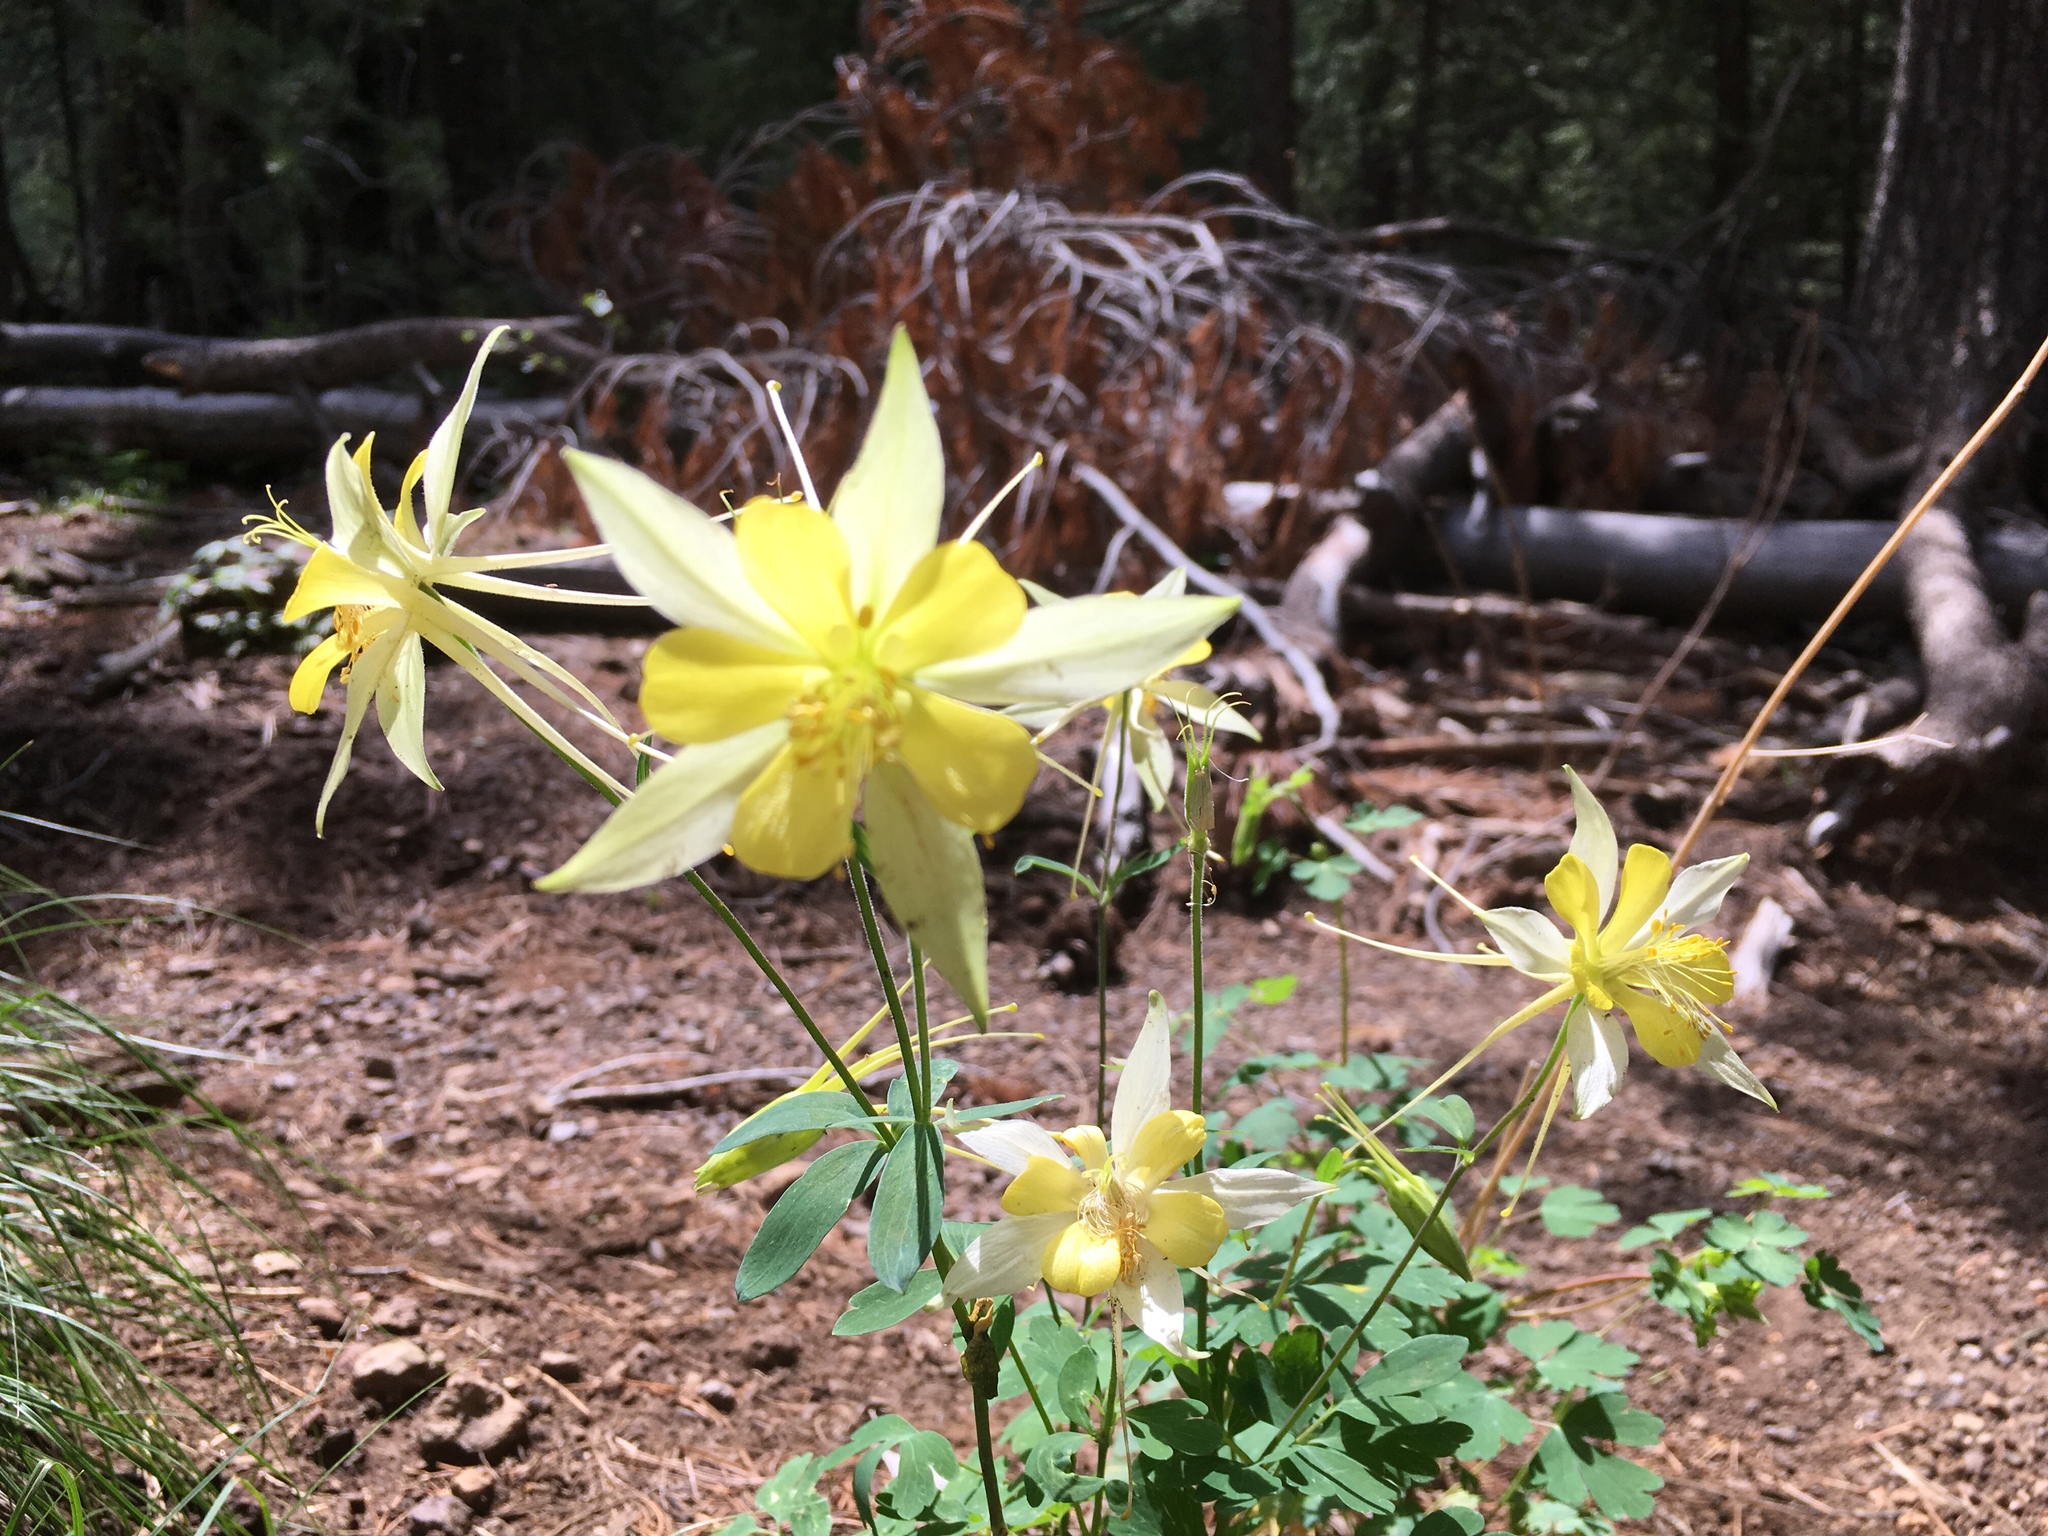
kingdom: Plantae
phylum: Tracheophyta
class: Magnoliopsida
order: Ranunculales
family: Ranunculaceae
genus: Aquilegia
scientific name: Aquilegia chrysantha
